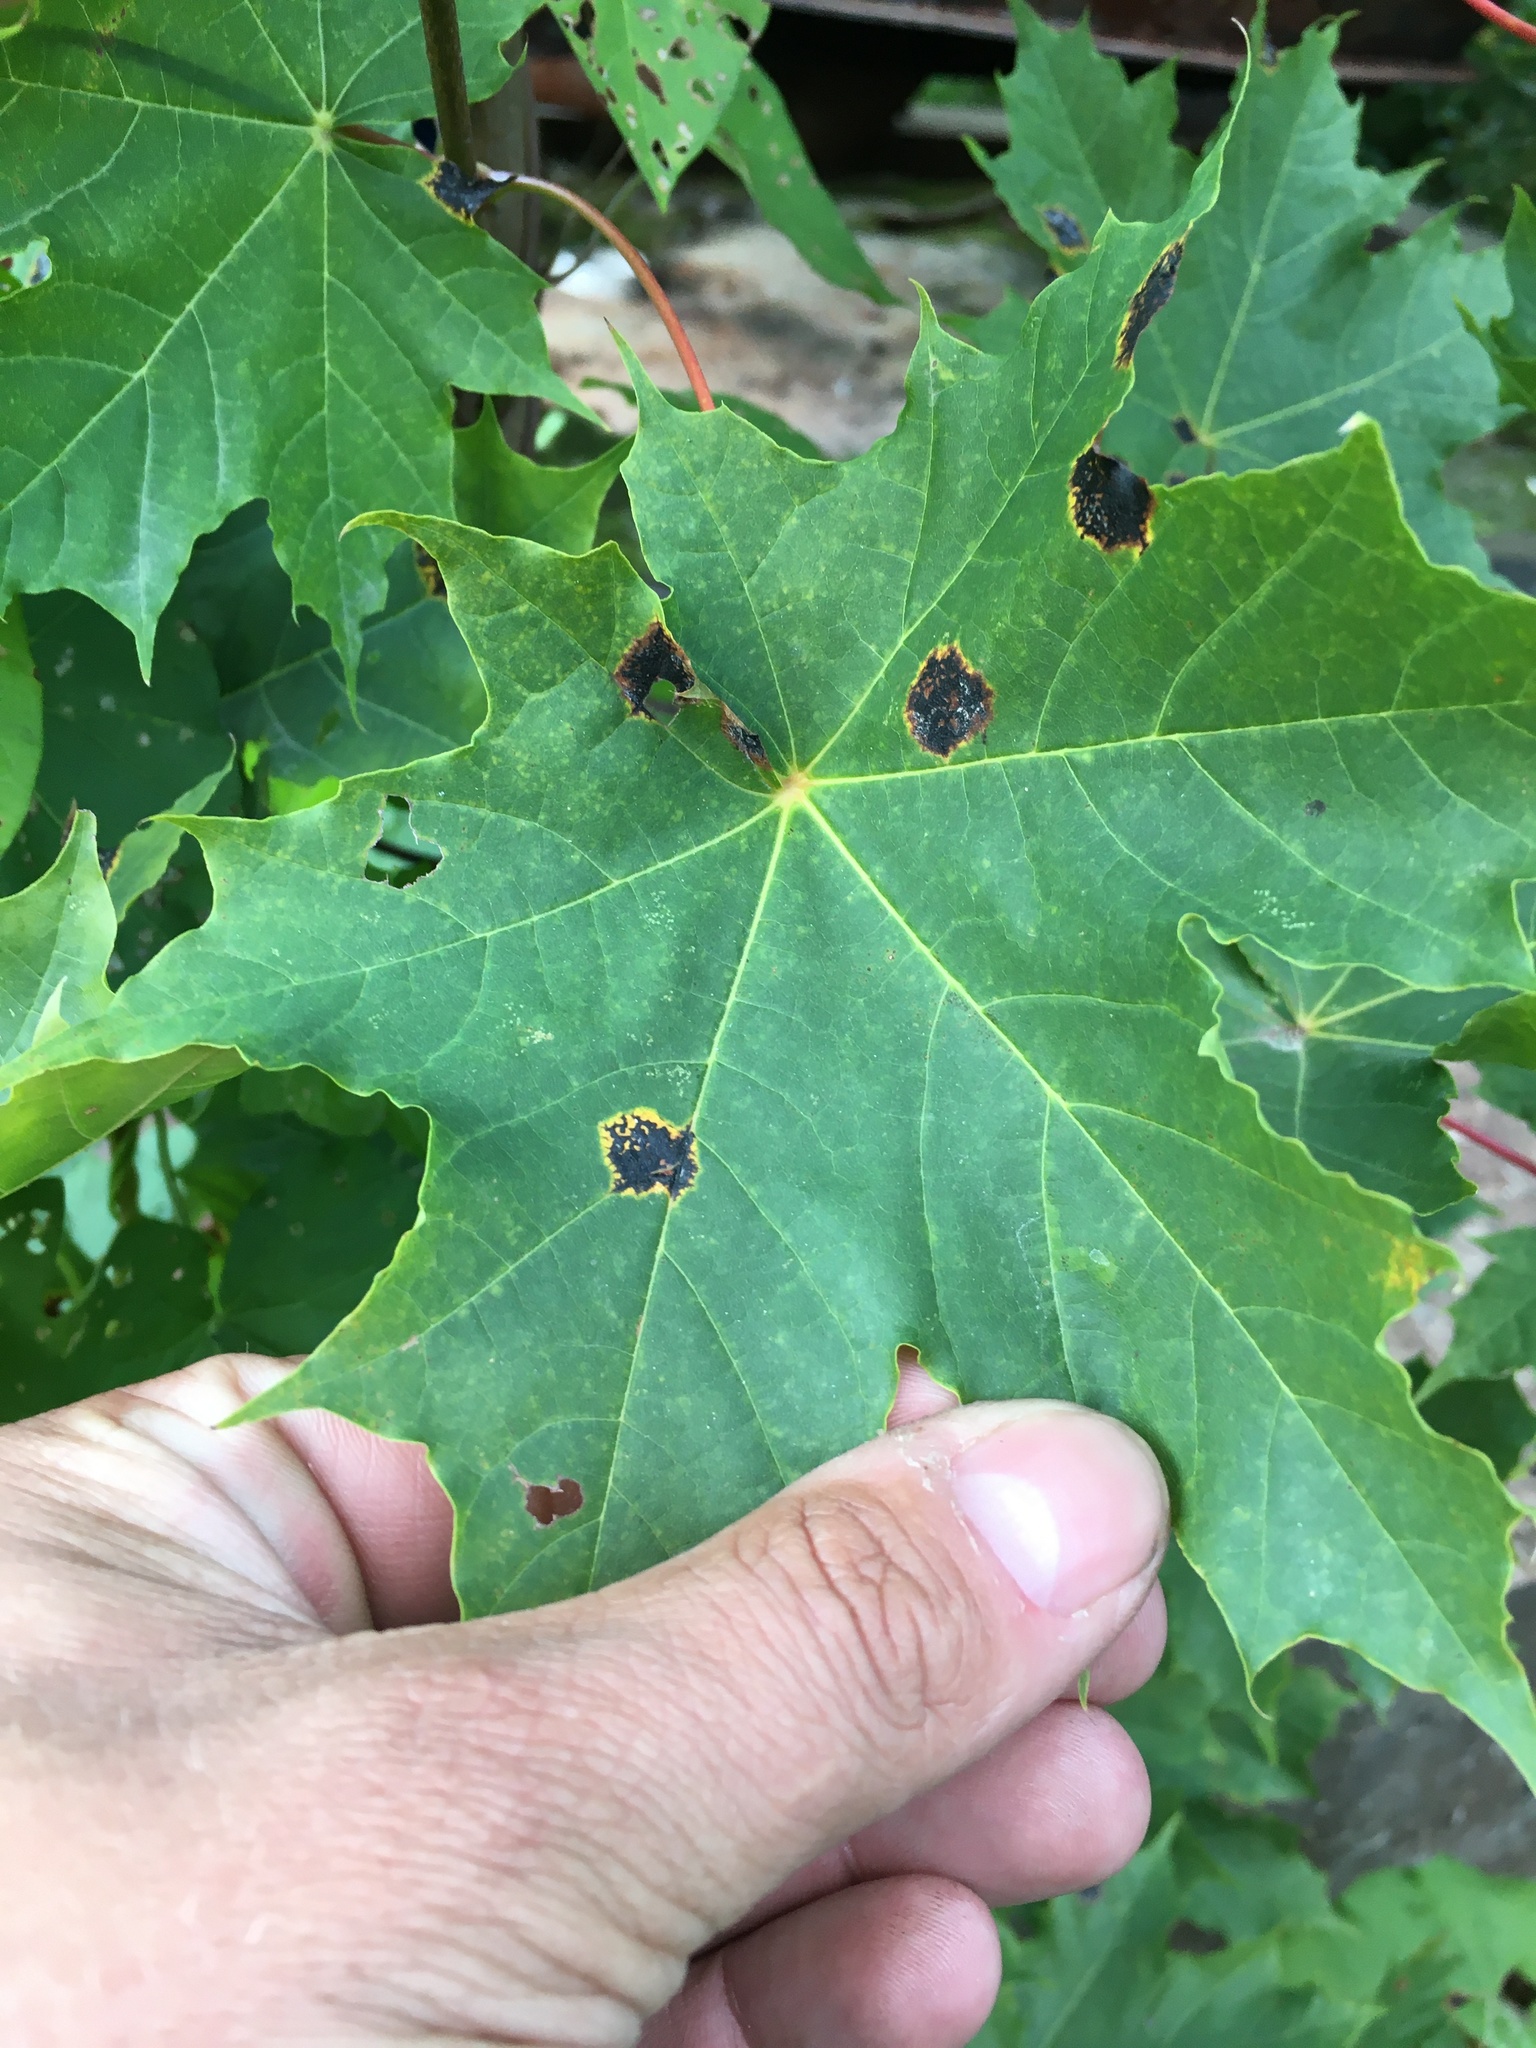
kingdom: Fungi
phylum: Ascomycota
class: Leotiomycetes
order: Rhytismatales
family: Rhytismataceae
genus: Rhytisma
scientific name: Rhytisma acerinum
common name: European tar spot
